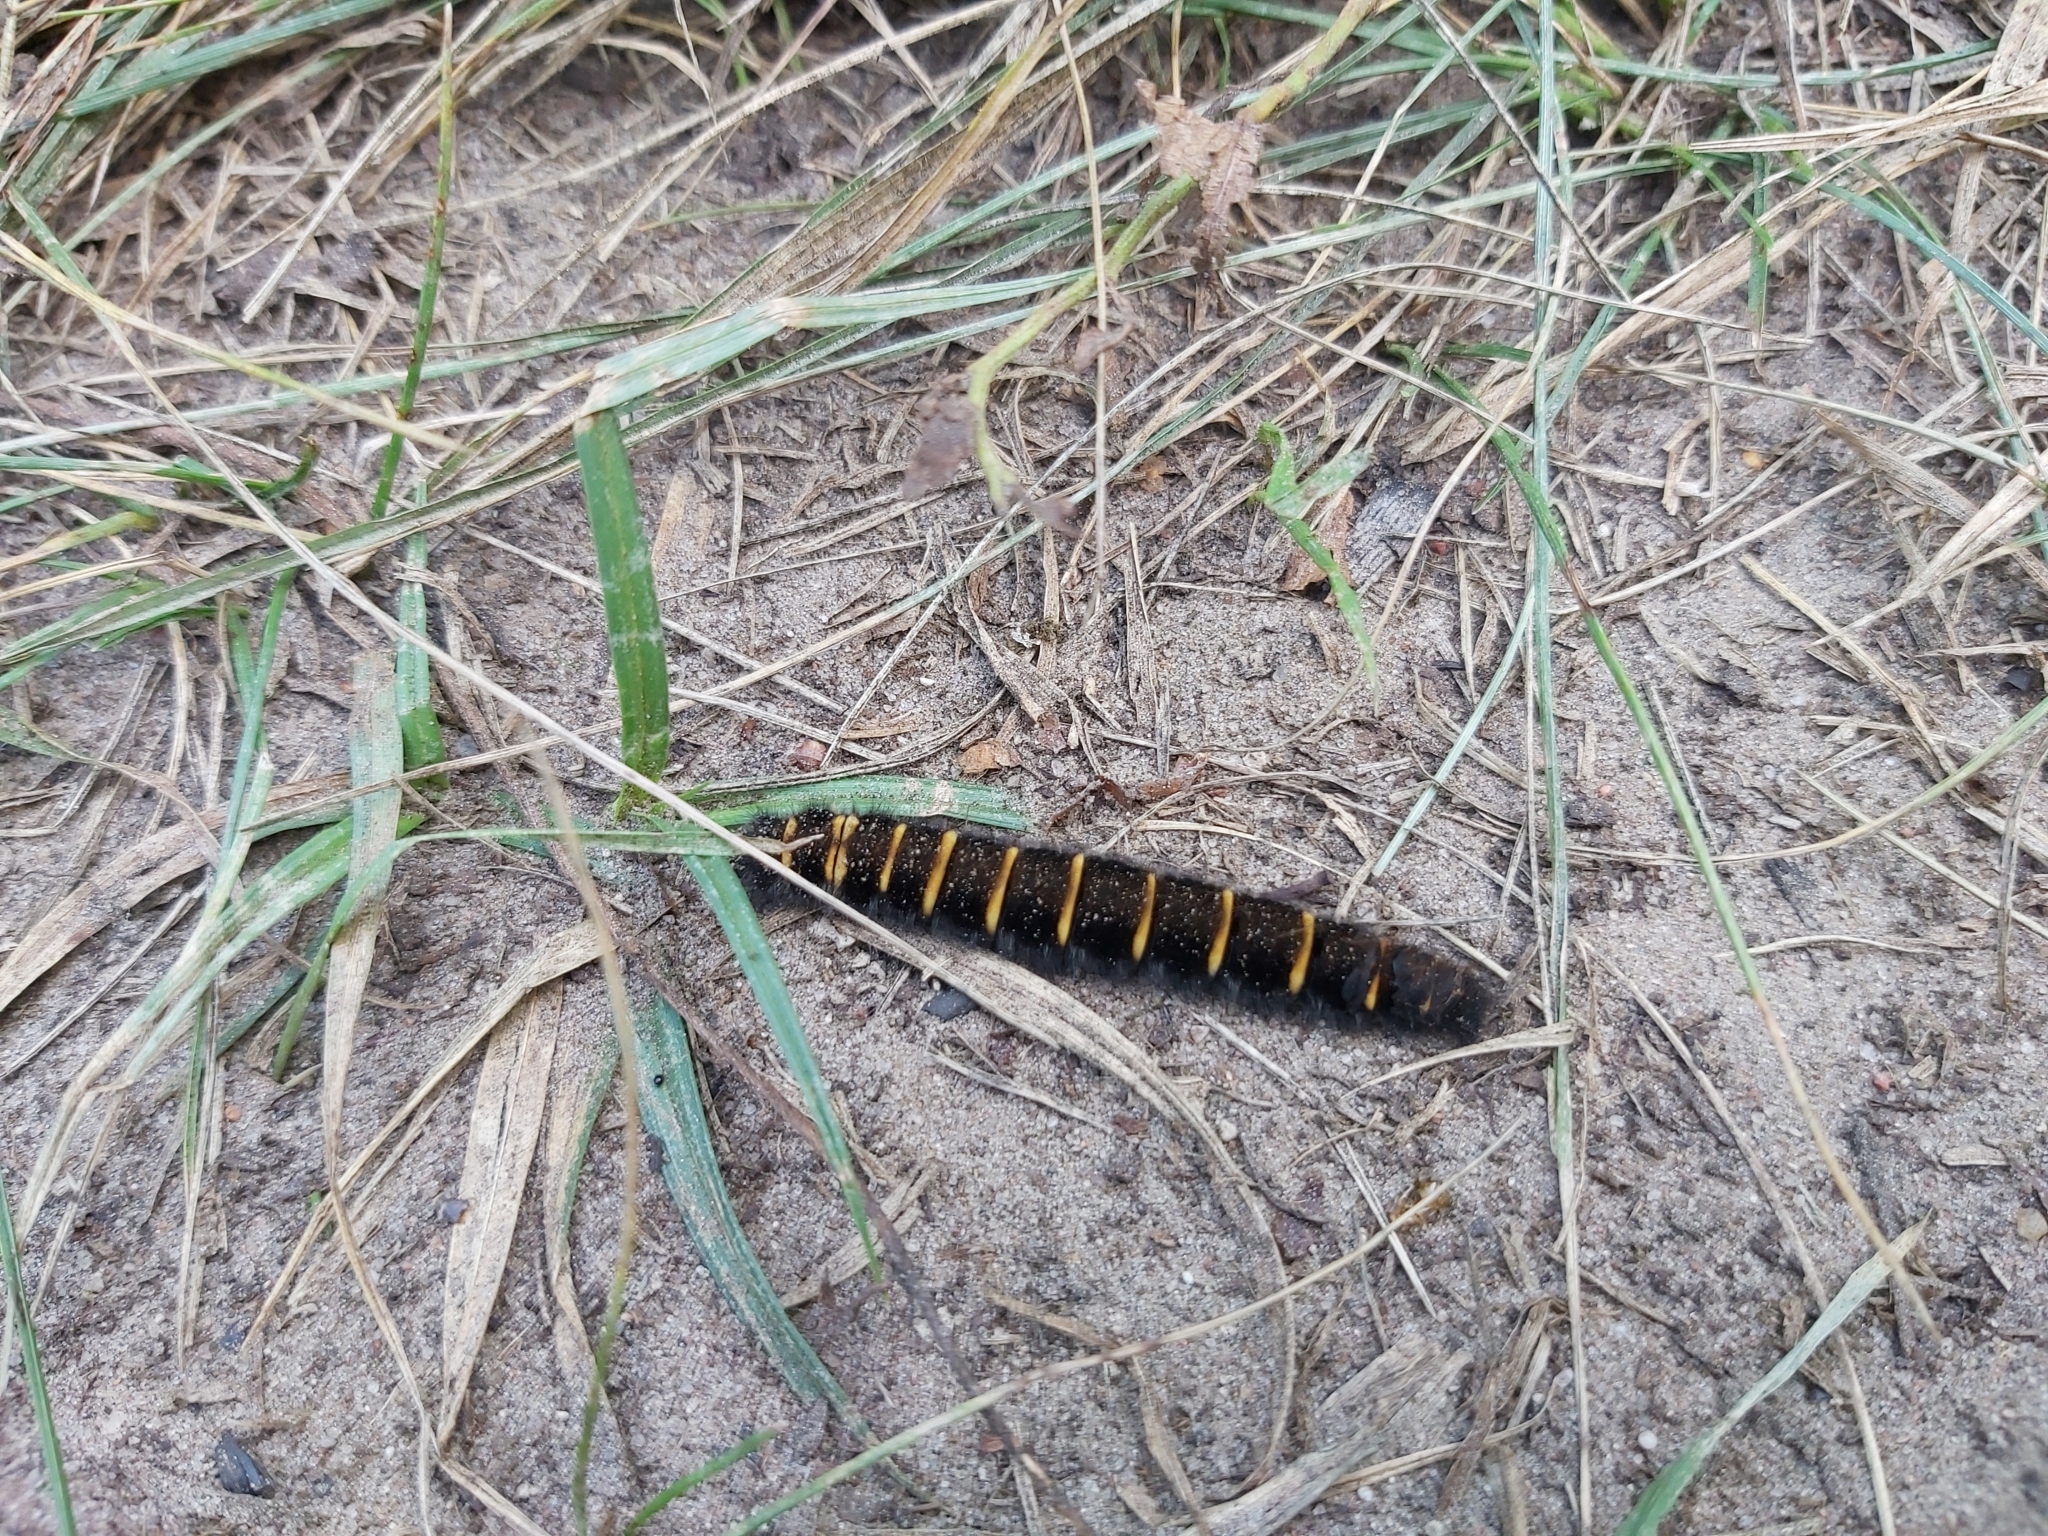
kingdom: Animalia
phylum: Arthropoda
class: Insecta
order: Lepidoptera
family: Lasiocampidae
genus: Macrothylacia
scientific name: Macrothylacia rubi
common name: Fox moth
